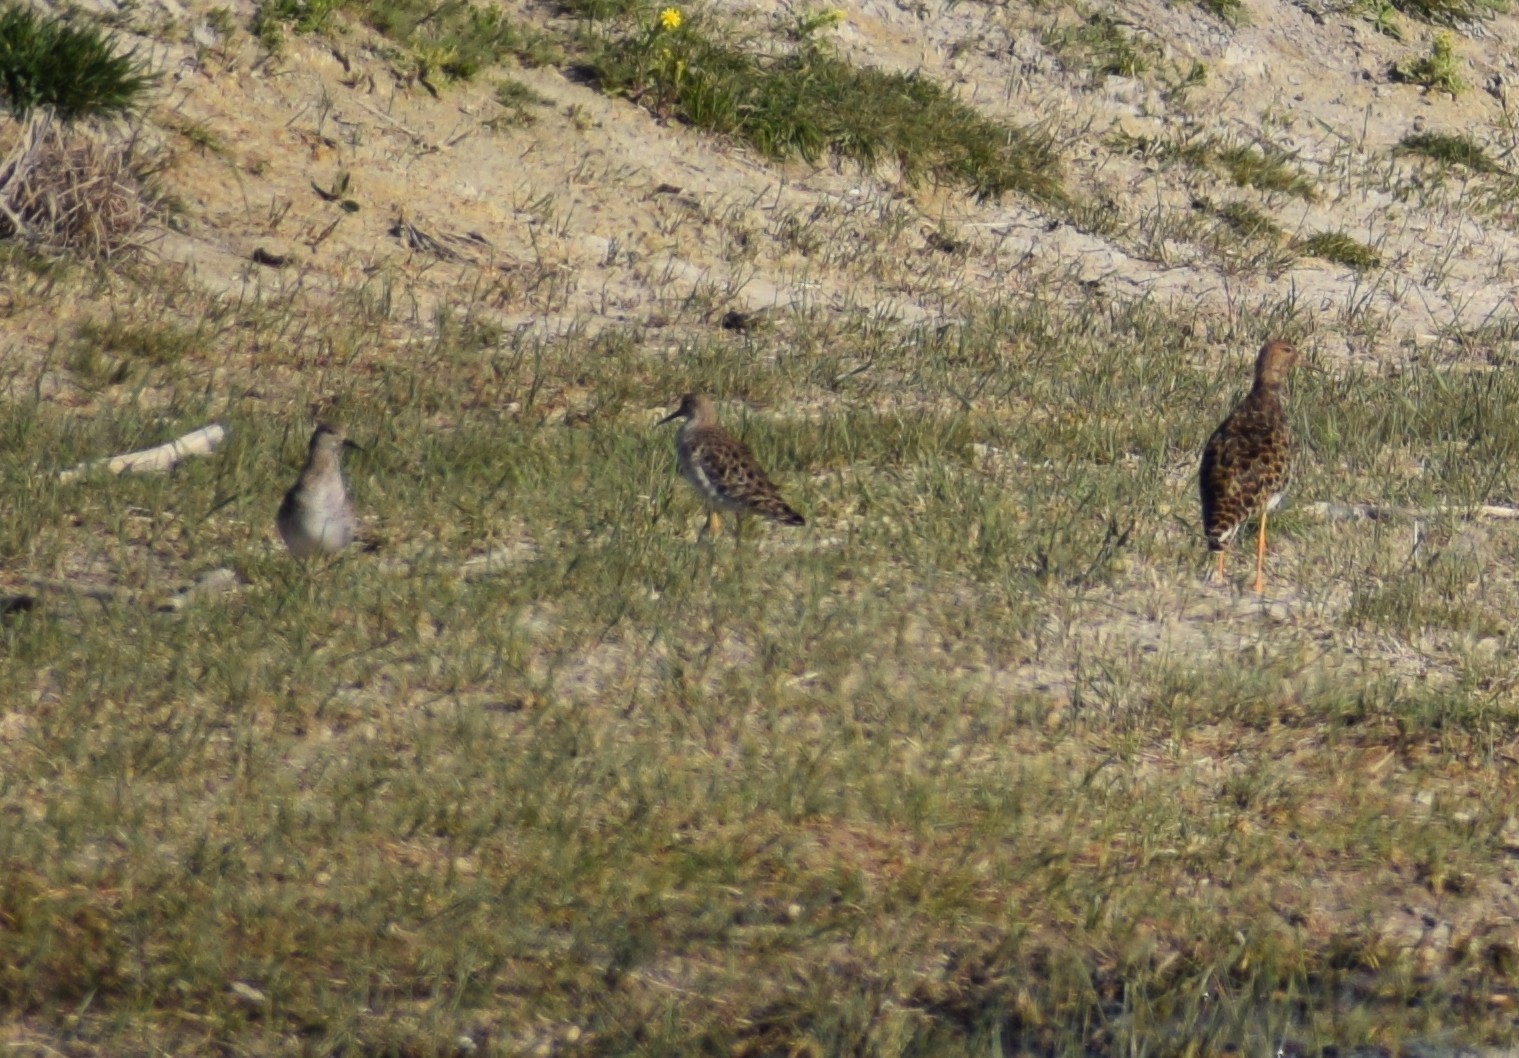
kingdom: Animalia
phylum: Chordata
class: Aves
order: Charadriiformes
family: Scolopacidae
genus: Calidris
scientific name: Calidris pugnax
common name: Ruff
